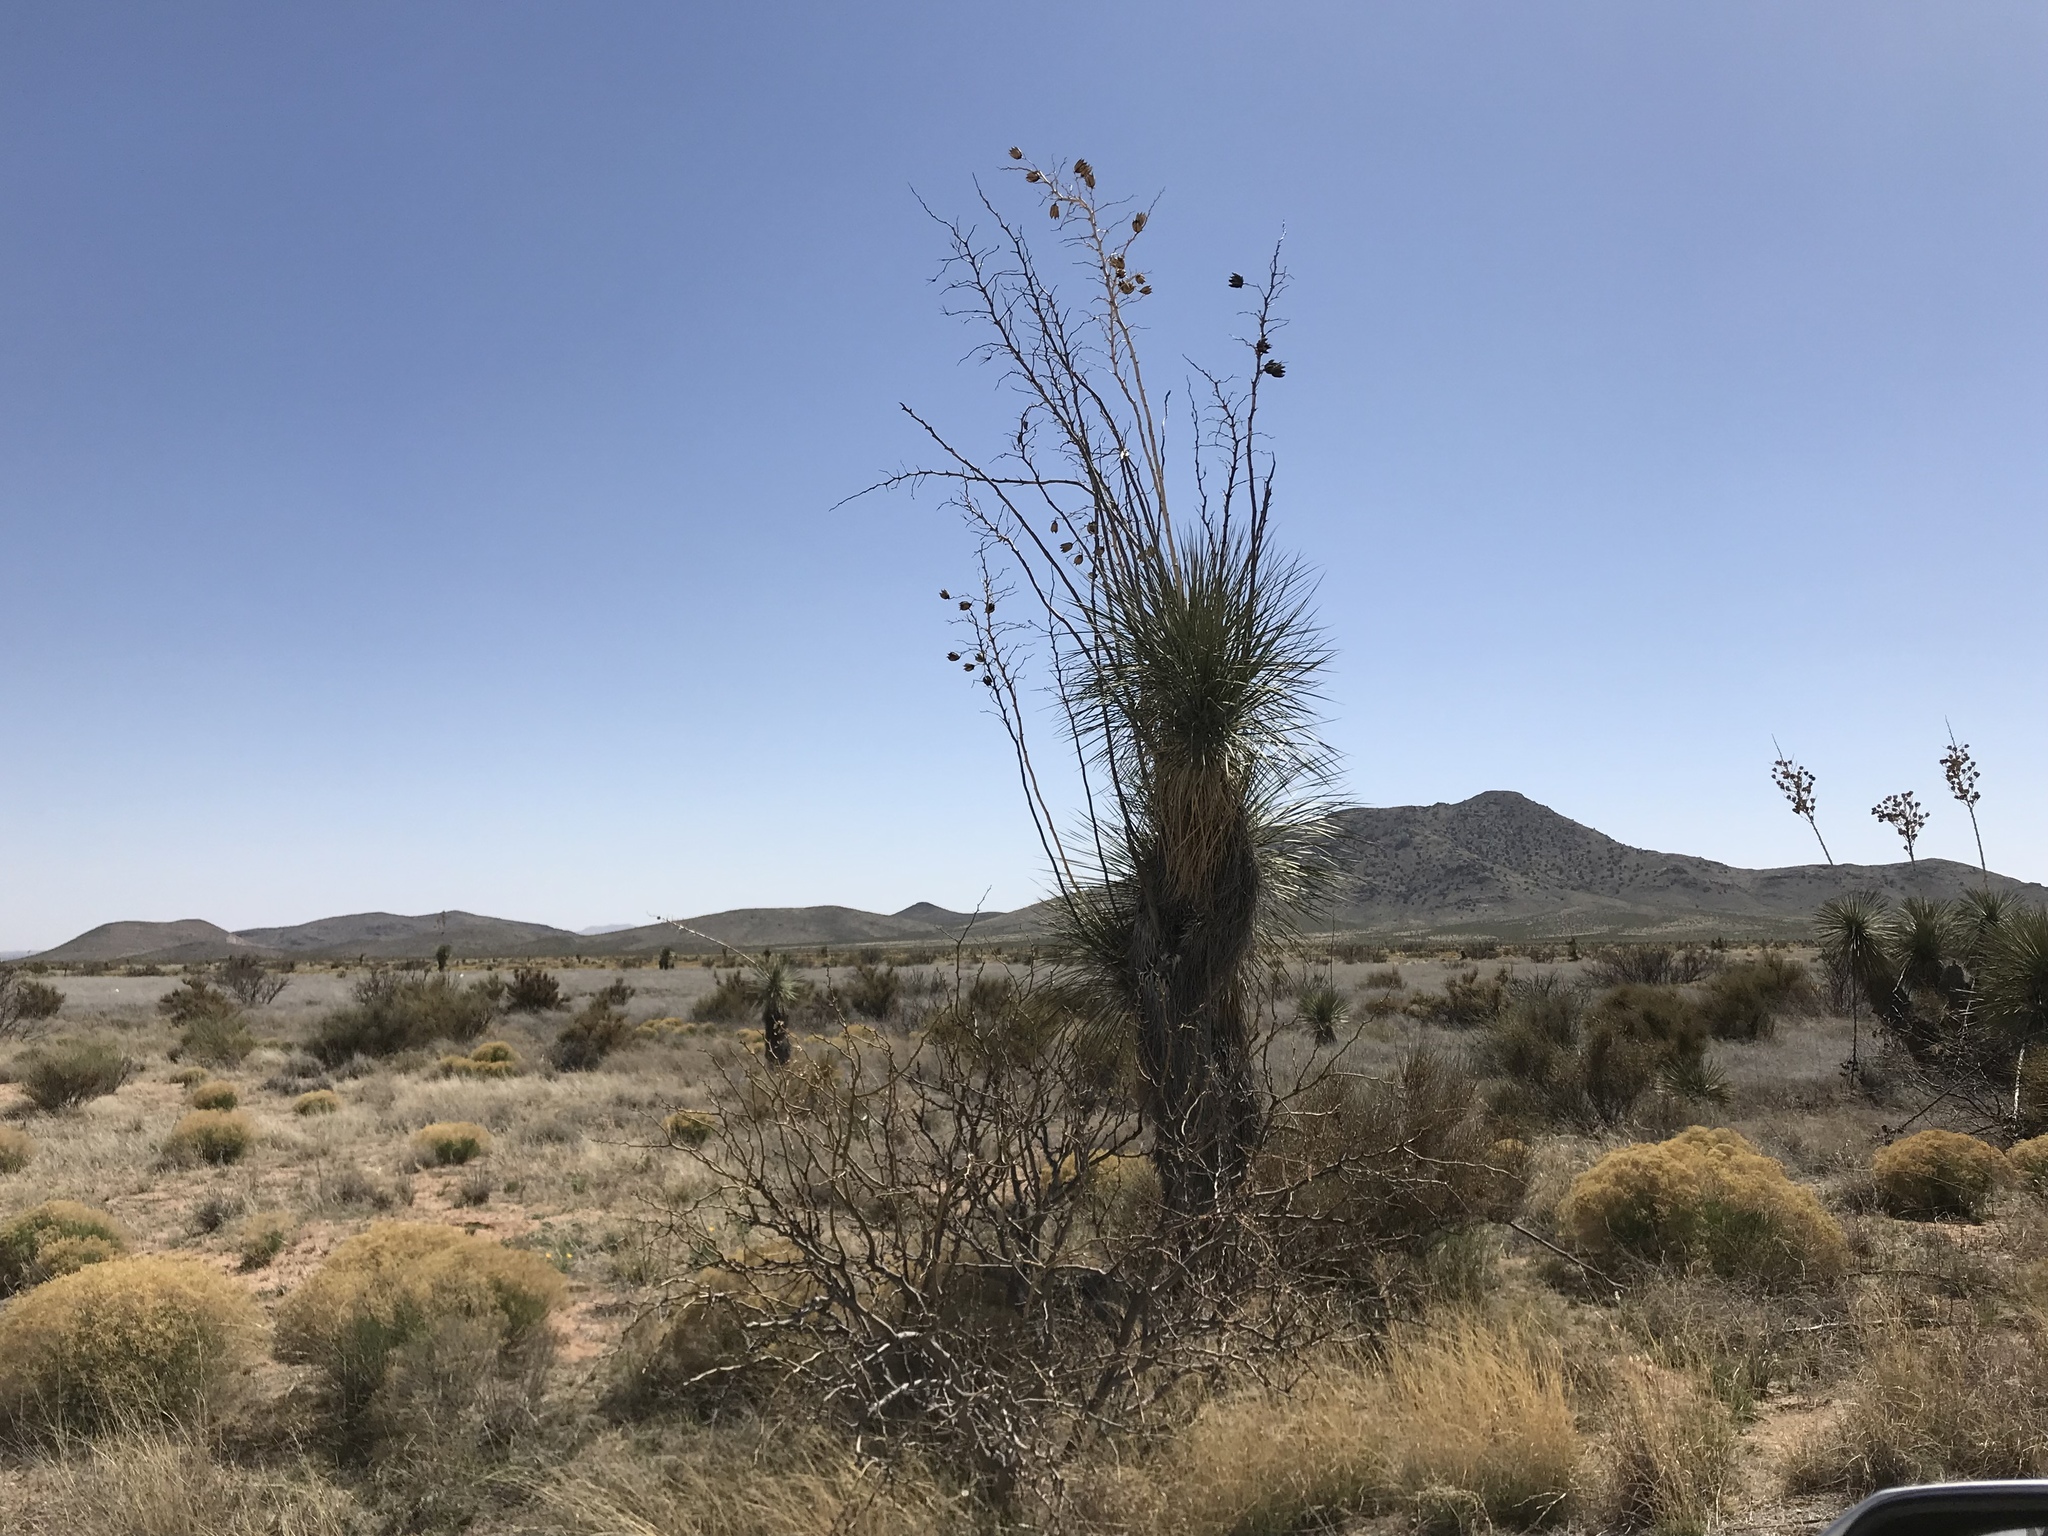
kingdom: Plantae
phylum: Tracheophyta
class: Liliopsida
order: Asparagales
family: Asparagaceae
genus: Yucca
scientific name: Yucca elata
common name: Palmella
